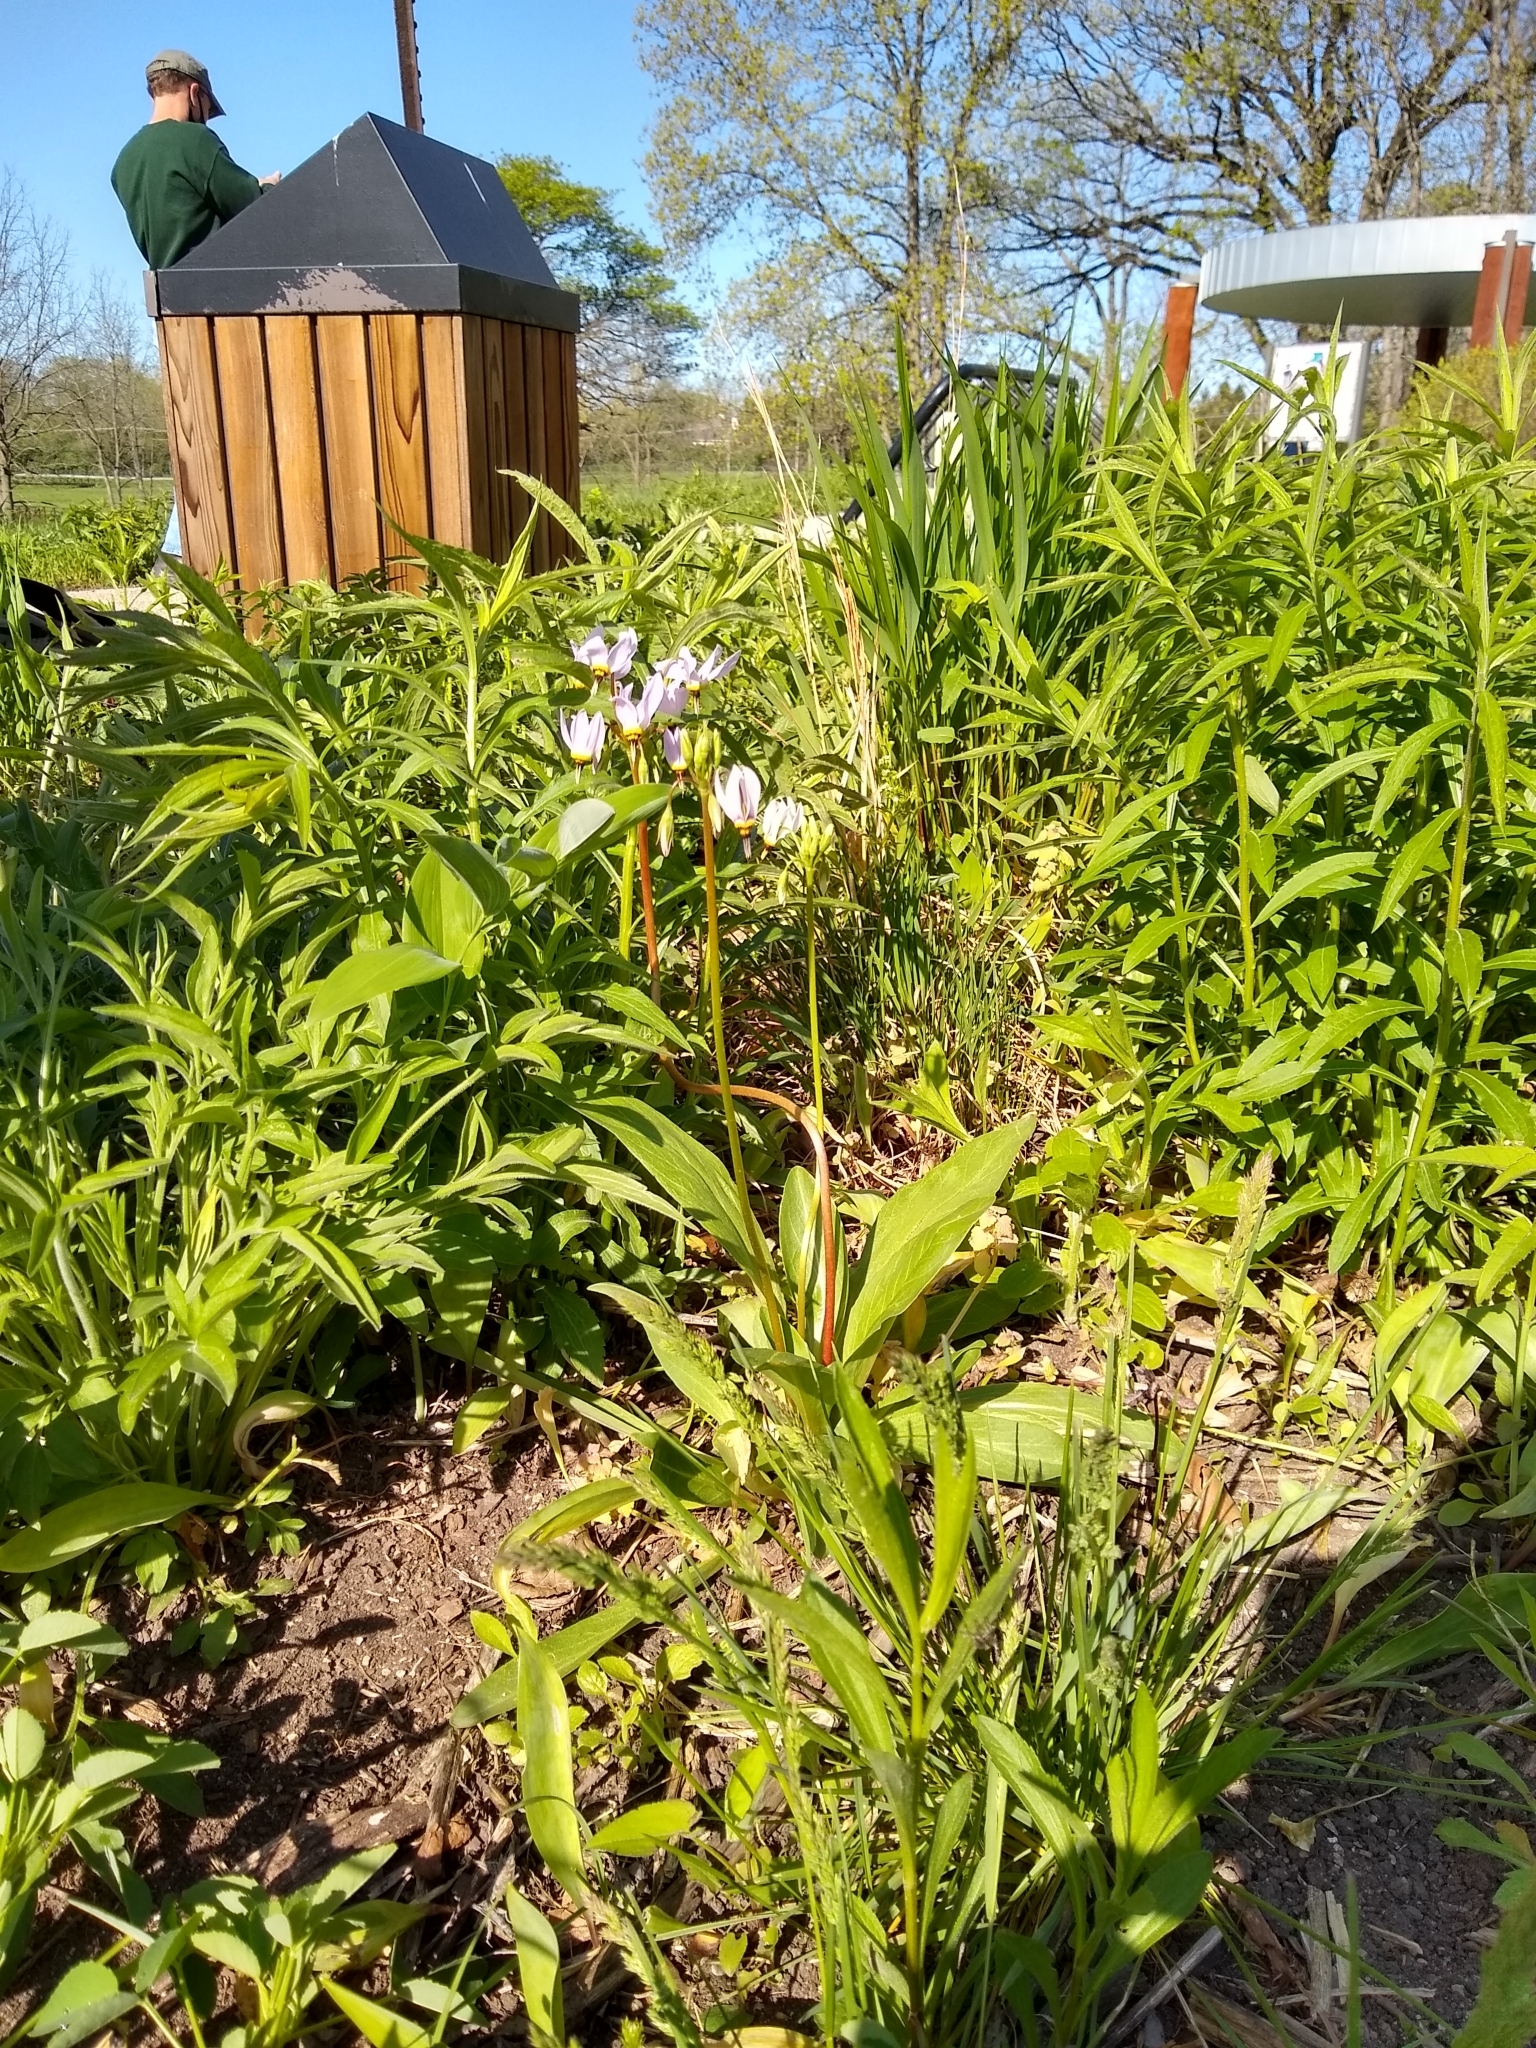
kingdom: Plantae
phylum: Tracheophyta
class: Magnoliopsida
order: Ericales
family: Primulaceae
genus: Dodecatheon
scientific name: Dodecatheon meadia
